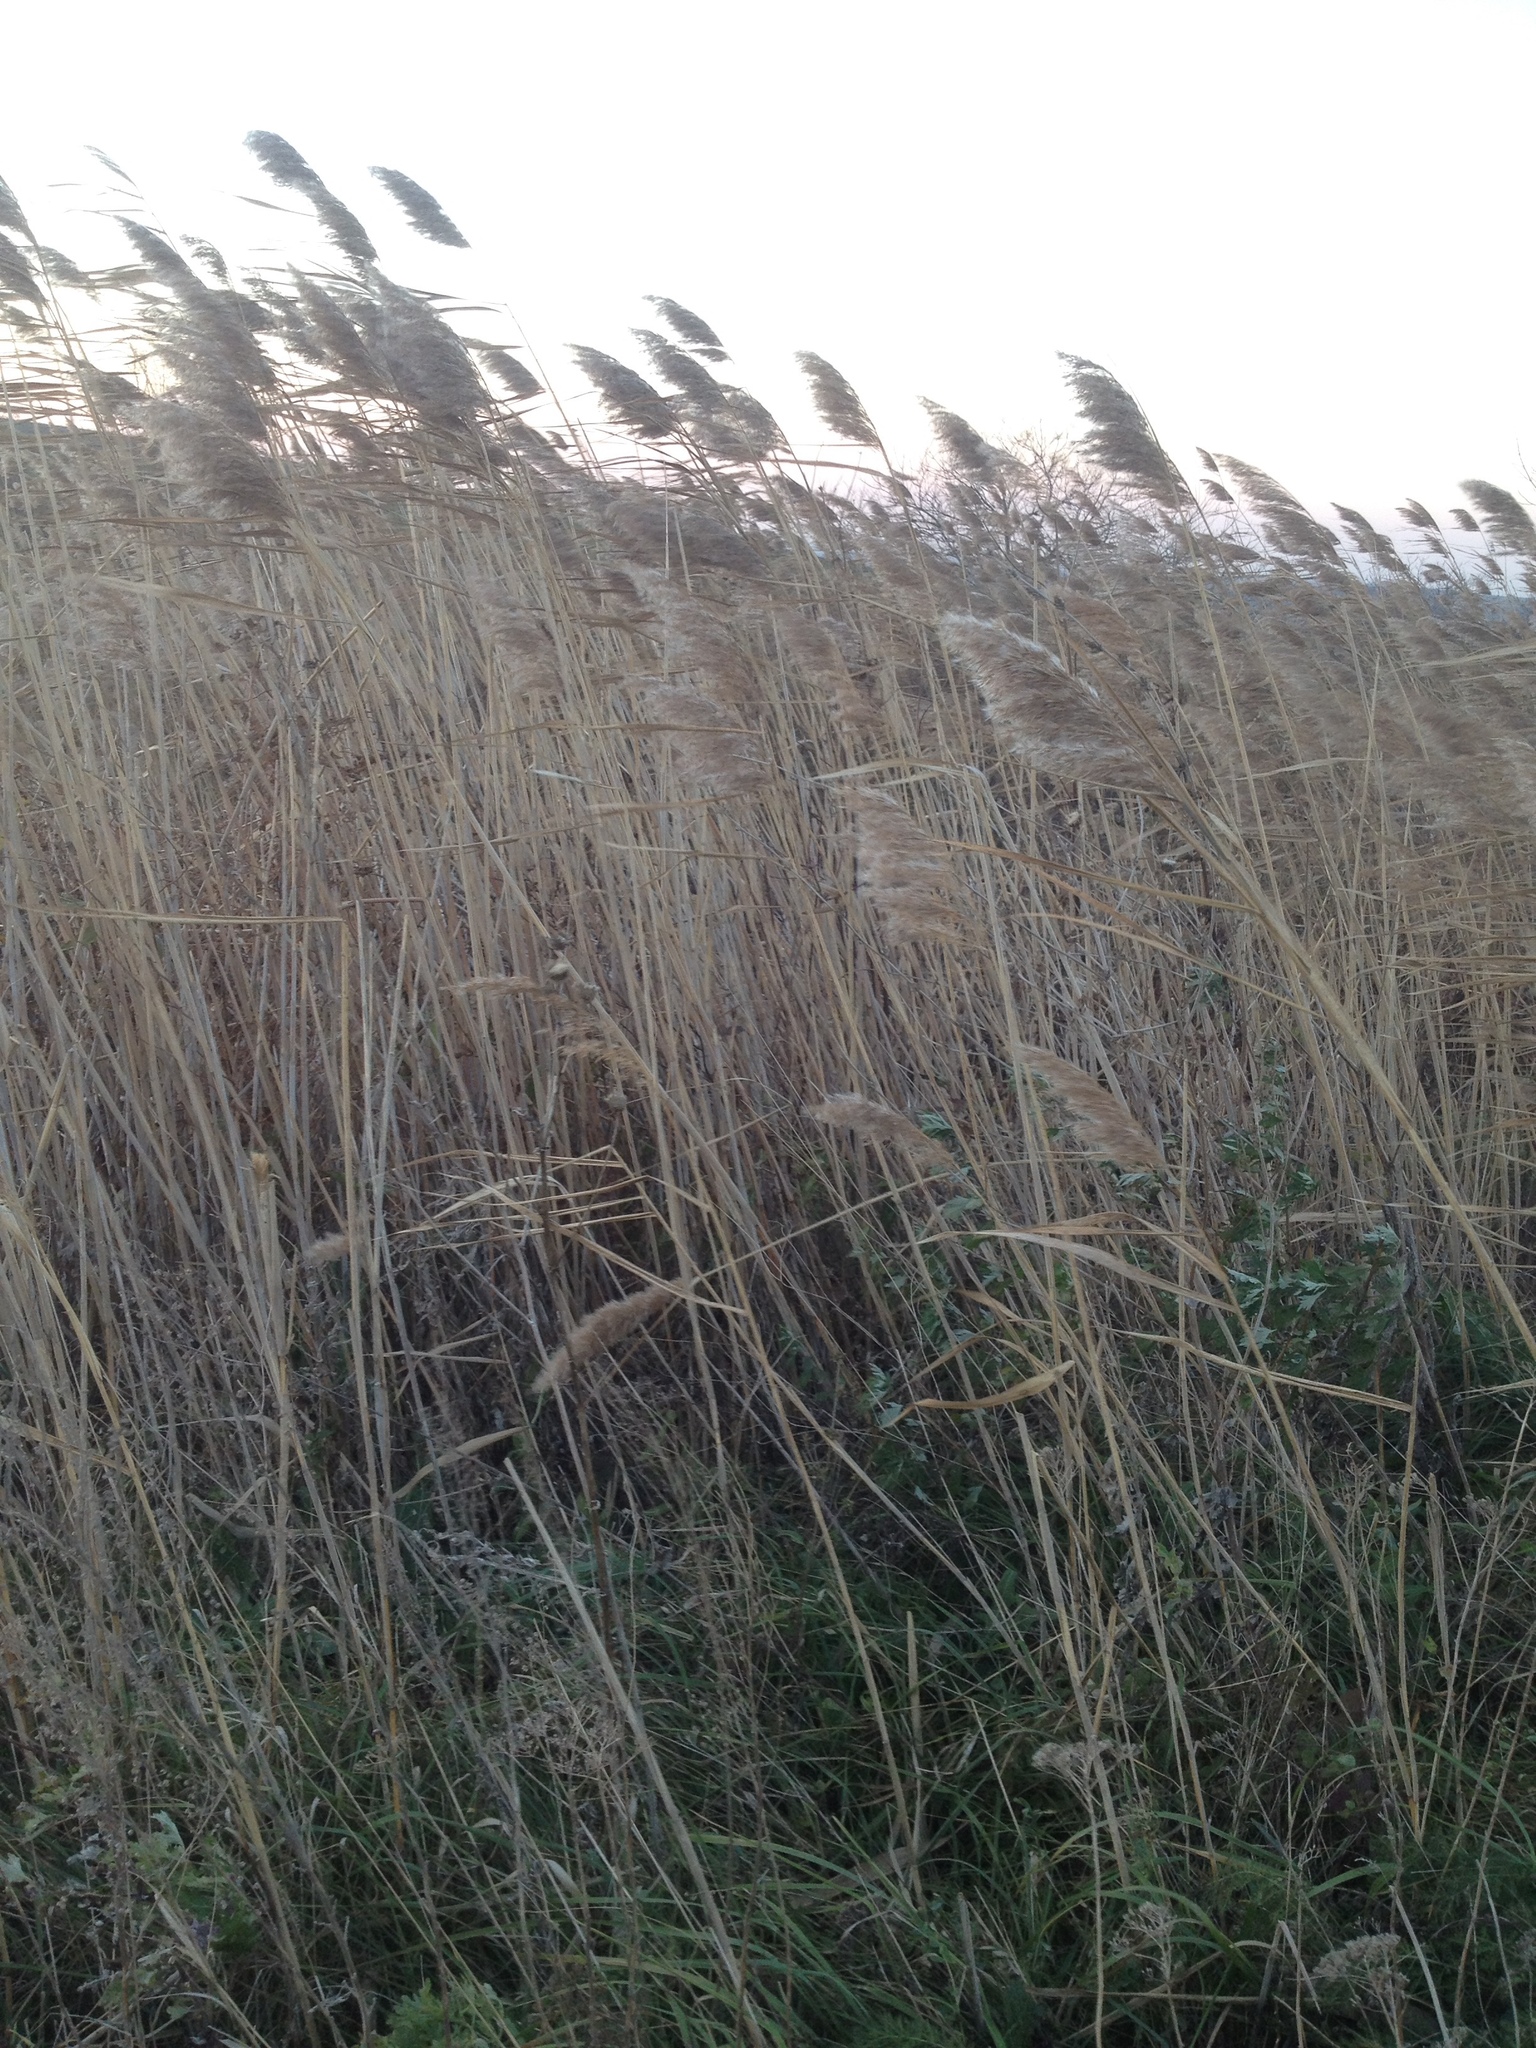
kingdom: Plantae
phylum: Tracheophyta
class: Liliopsida
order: Poales
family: Poaceae
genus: Phragmites
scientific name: Phragmites australis
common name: Common reed
